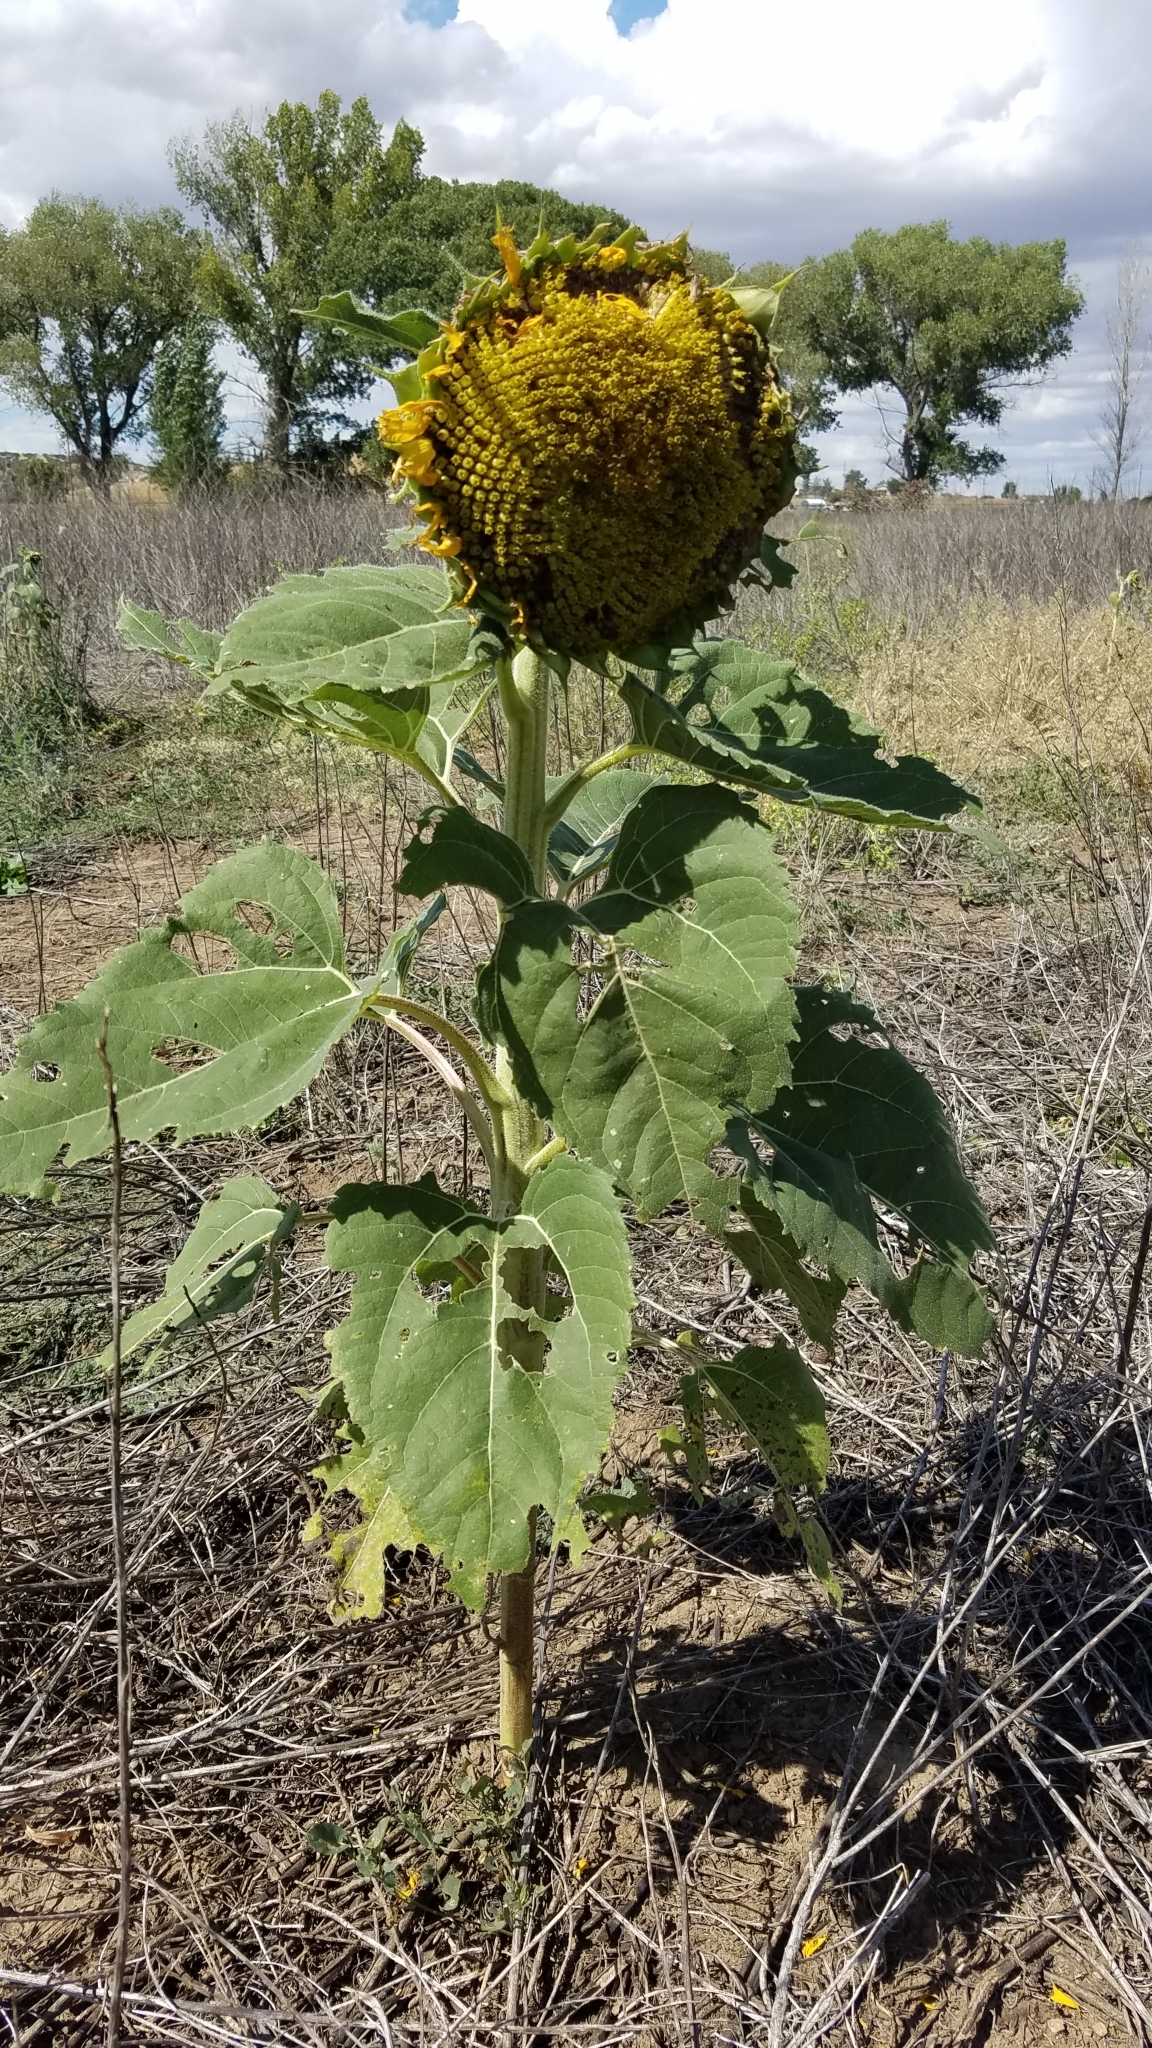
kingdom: Plantae
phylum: Tracheophyta
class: Magnoliopsida
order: Asterales
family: Asteraceae
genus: Helianthus
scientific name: Helianthus annuus
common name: Sunflower
